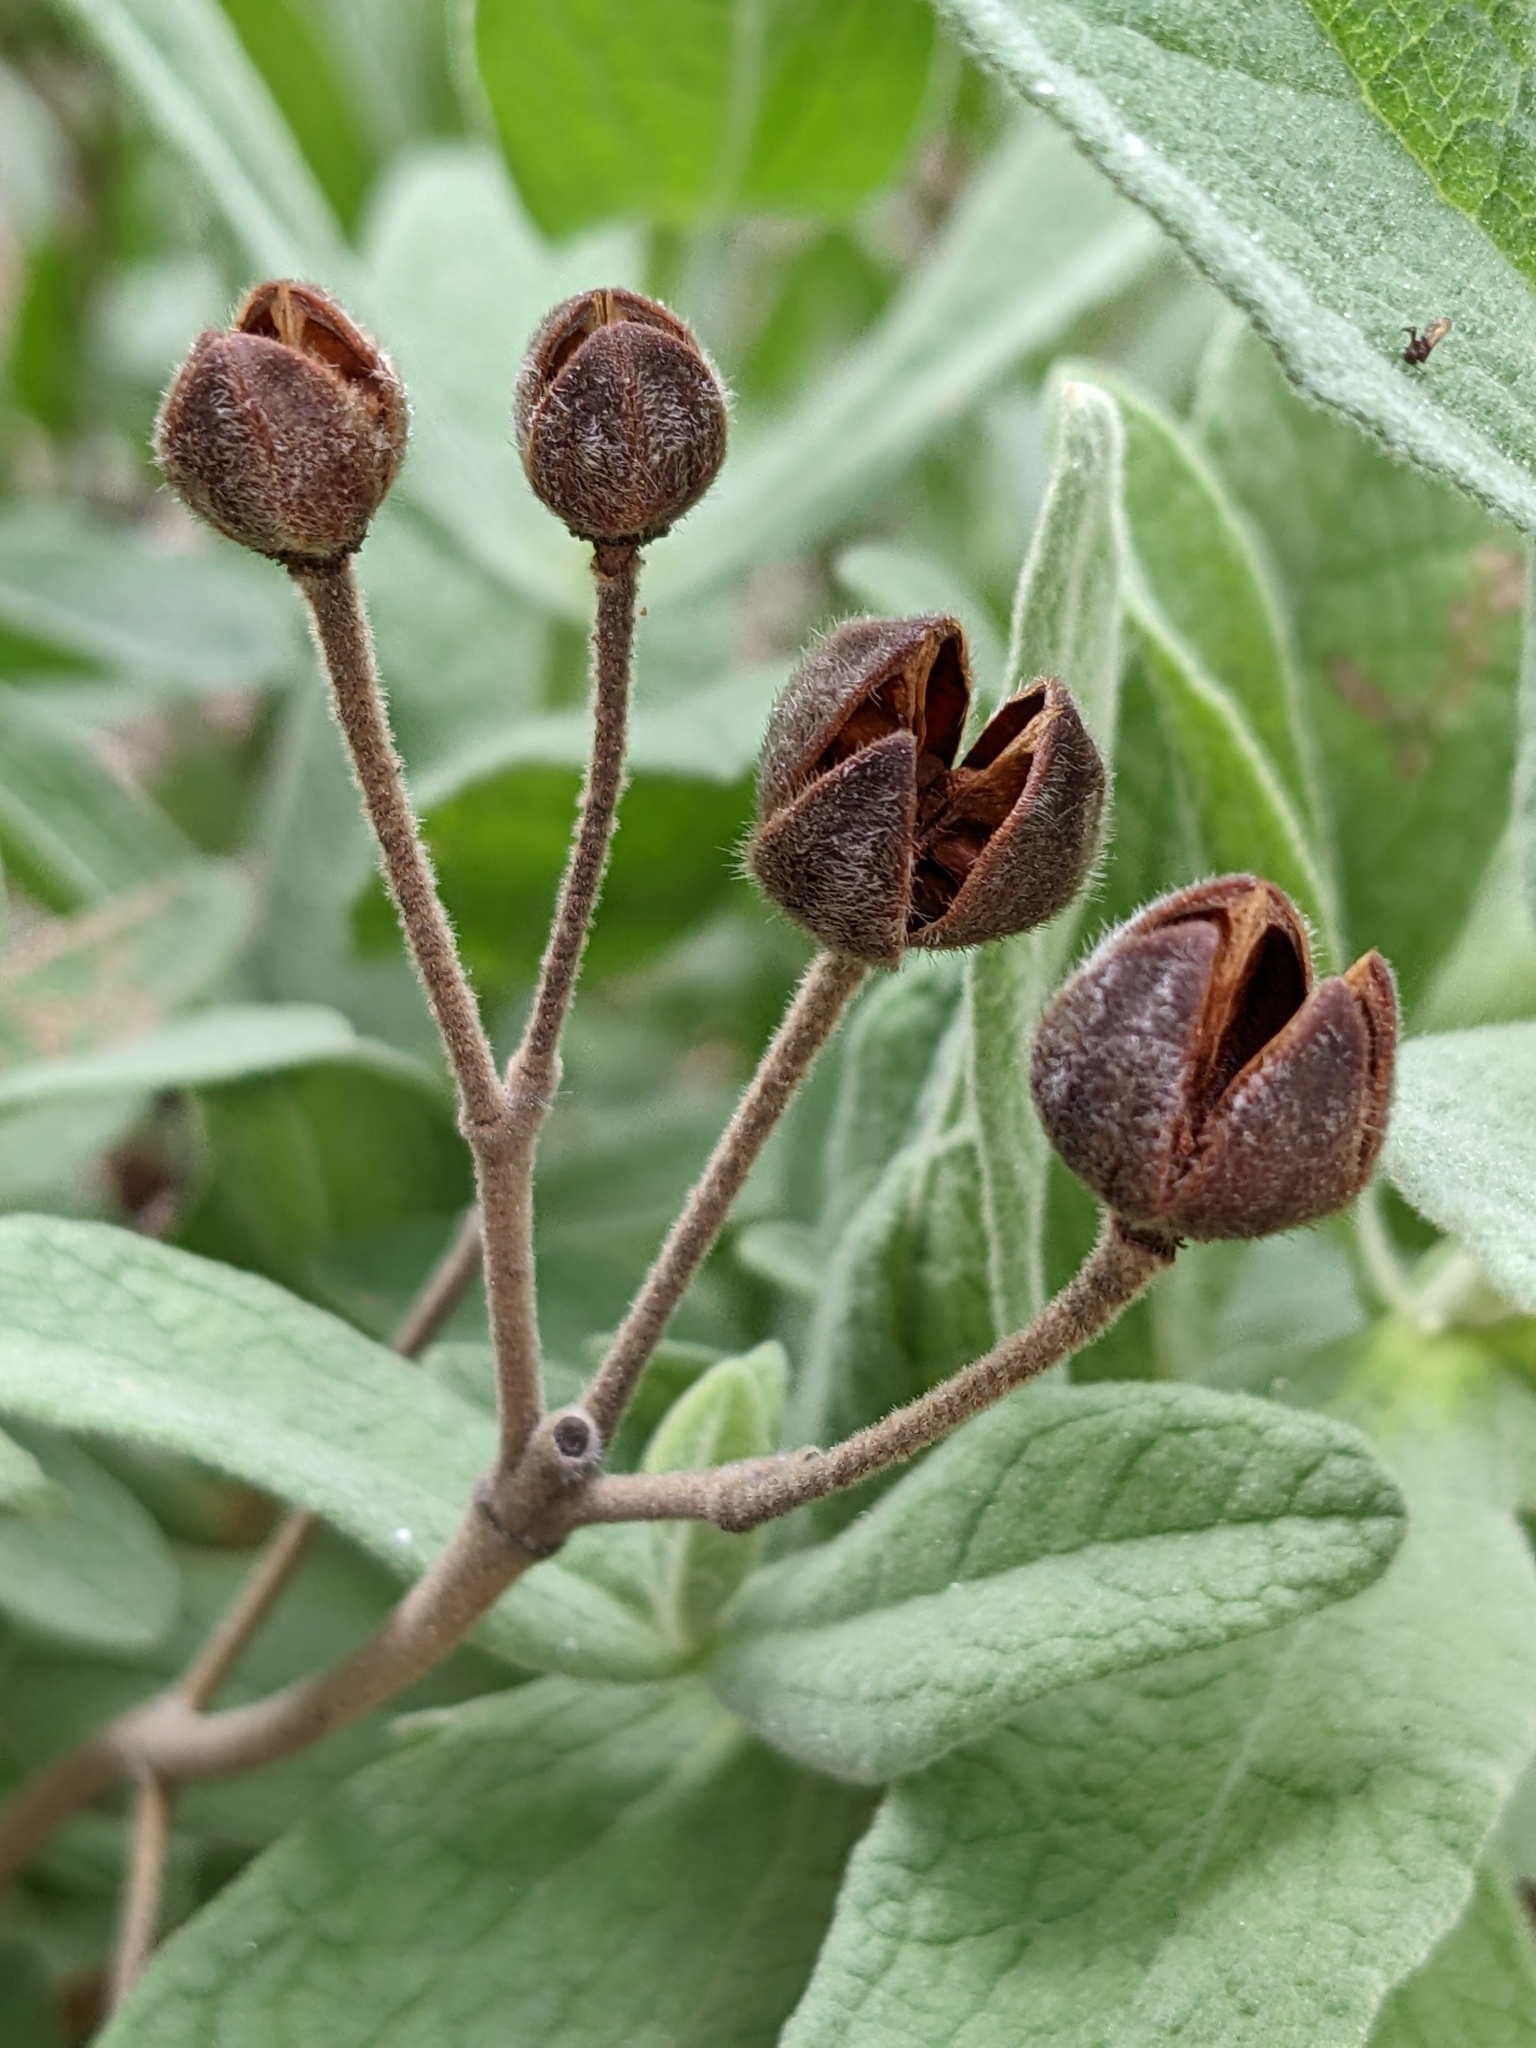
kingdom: Plantae
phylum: Tracheophyta
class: Magnoliopsida
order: Malvales
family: Cistaceae
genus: Cistus
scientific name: Cistus albidus
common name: White-leaf rock-rose
